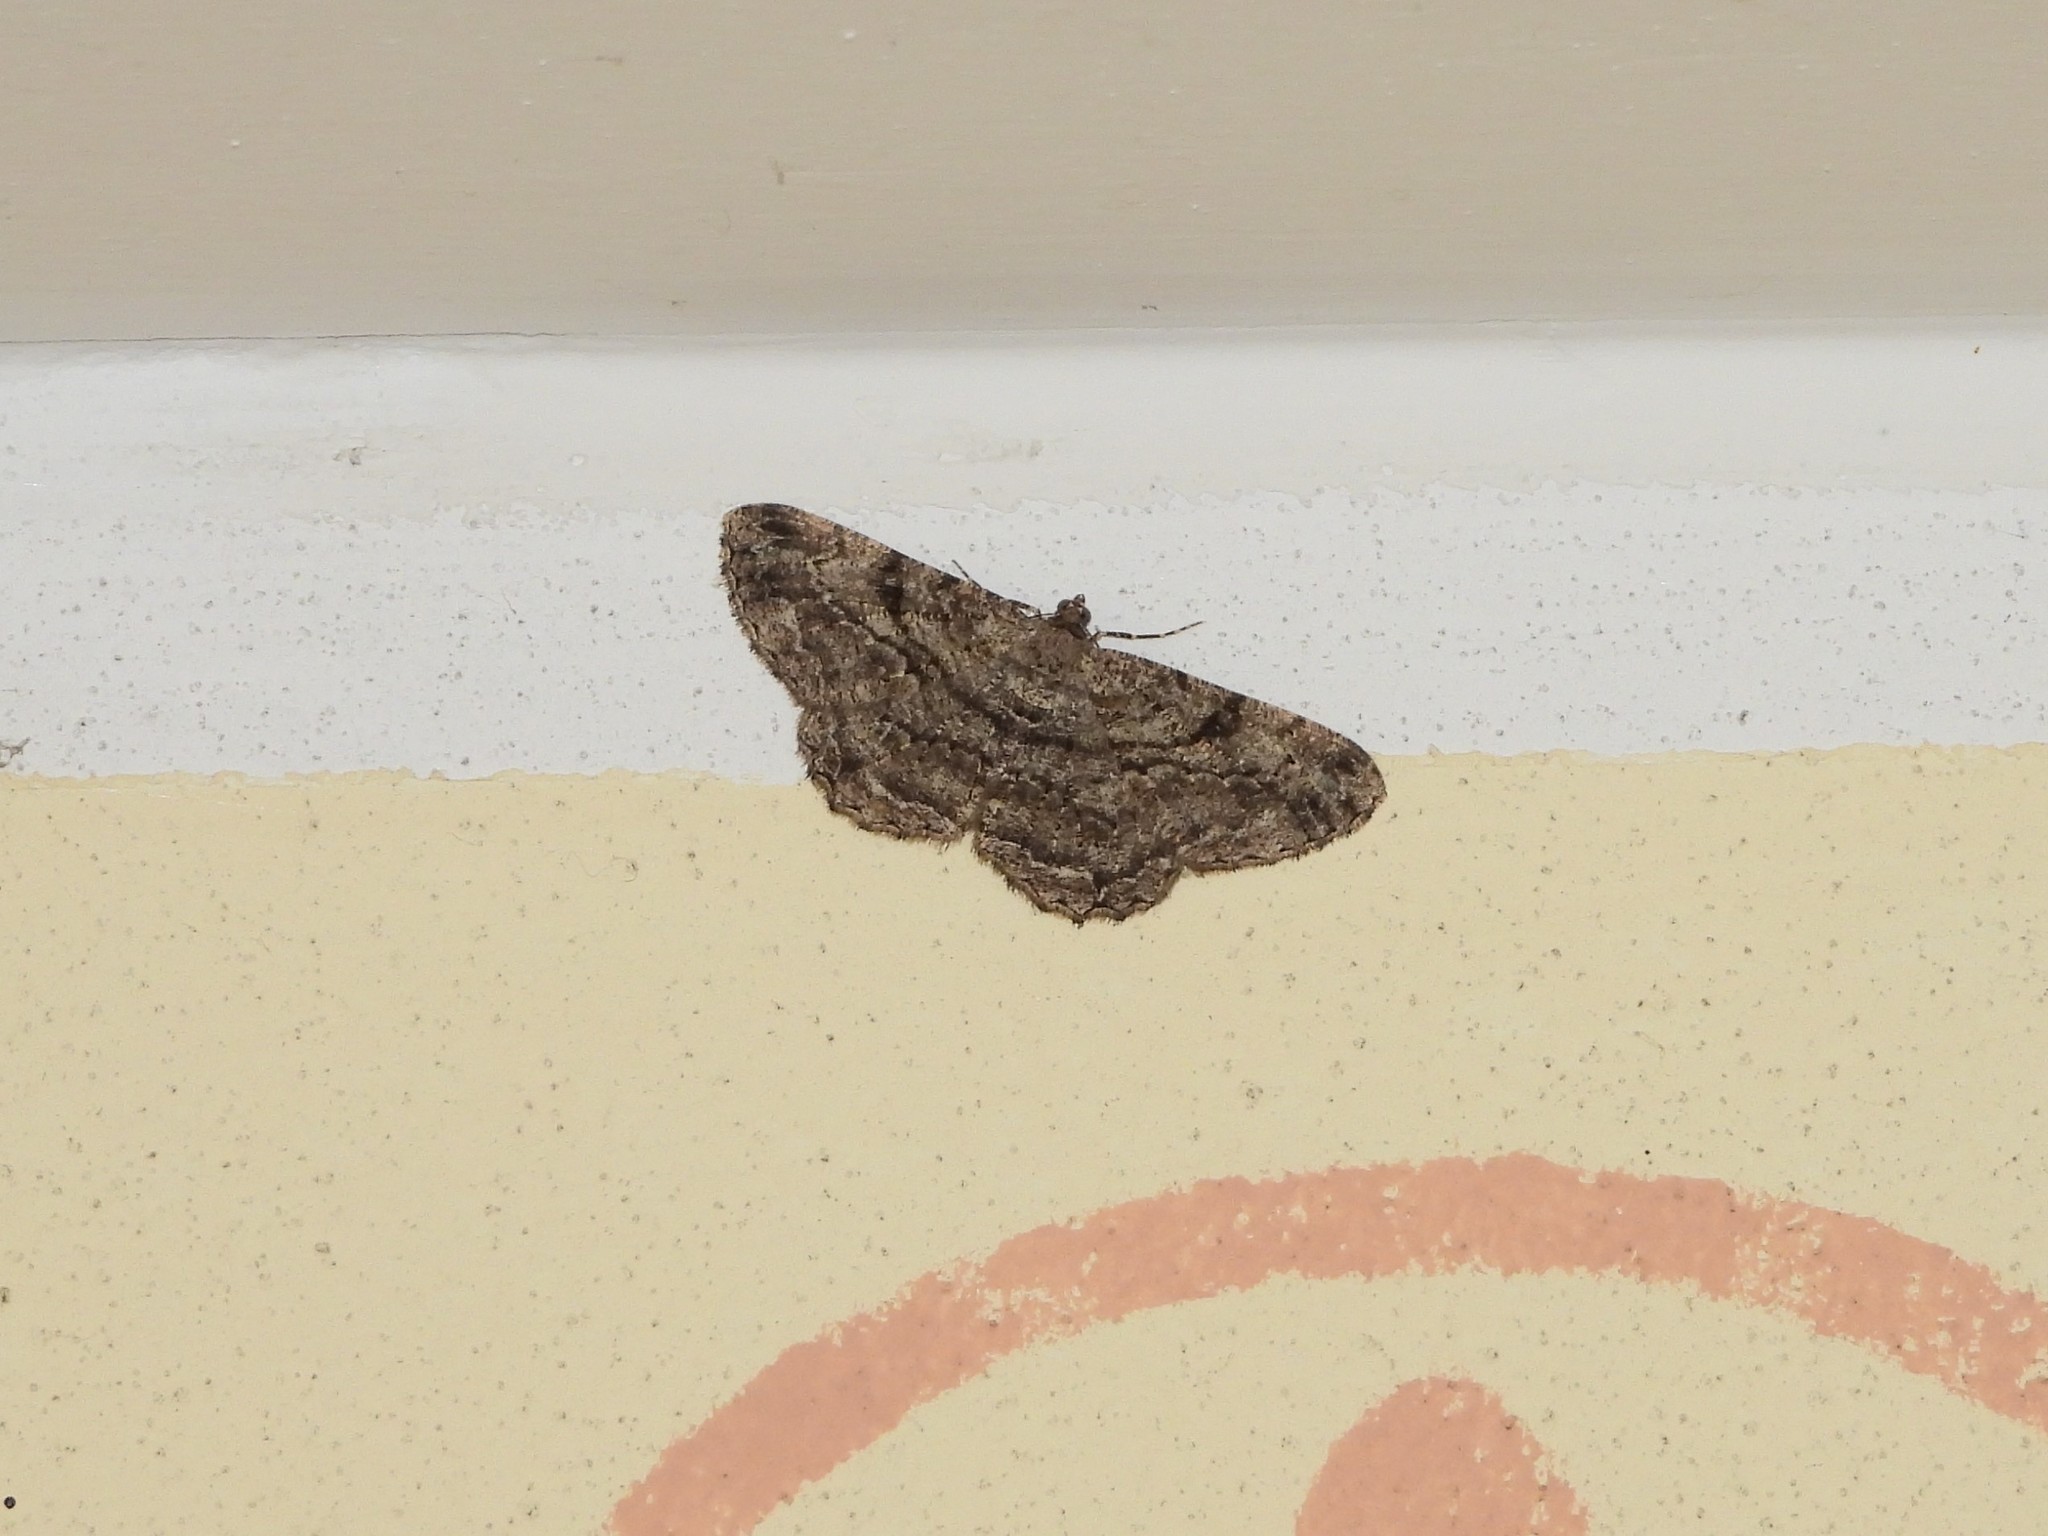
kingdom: Animalia
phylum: Arthropoda
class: Insecta
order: Lepidoptera
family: Geometridae
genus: Peribatodes
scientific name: Peribatodes rhomboidaria
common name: Willow beauty
